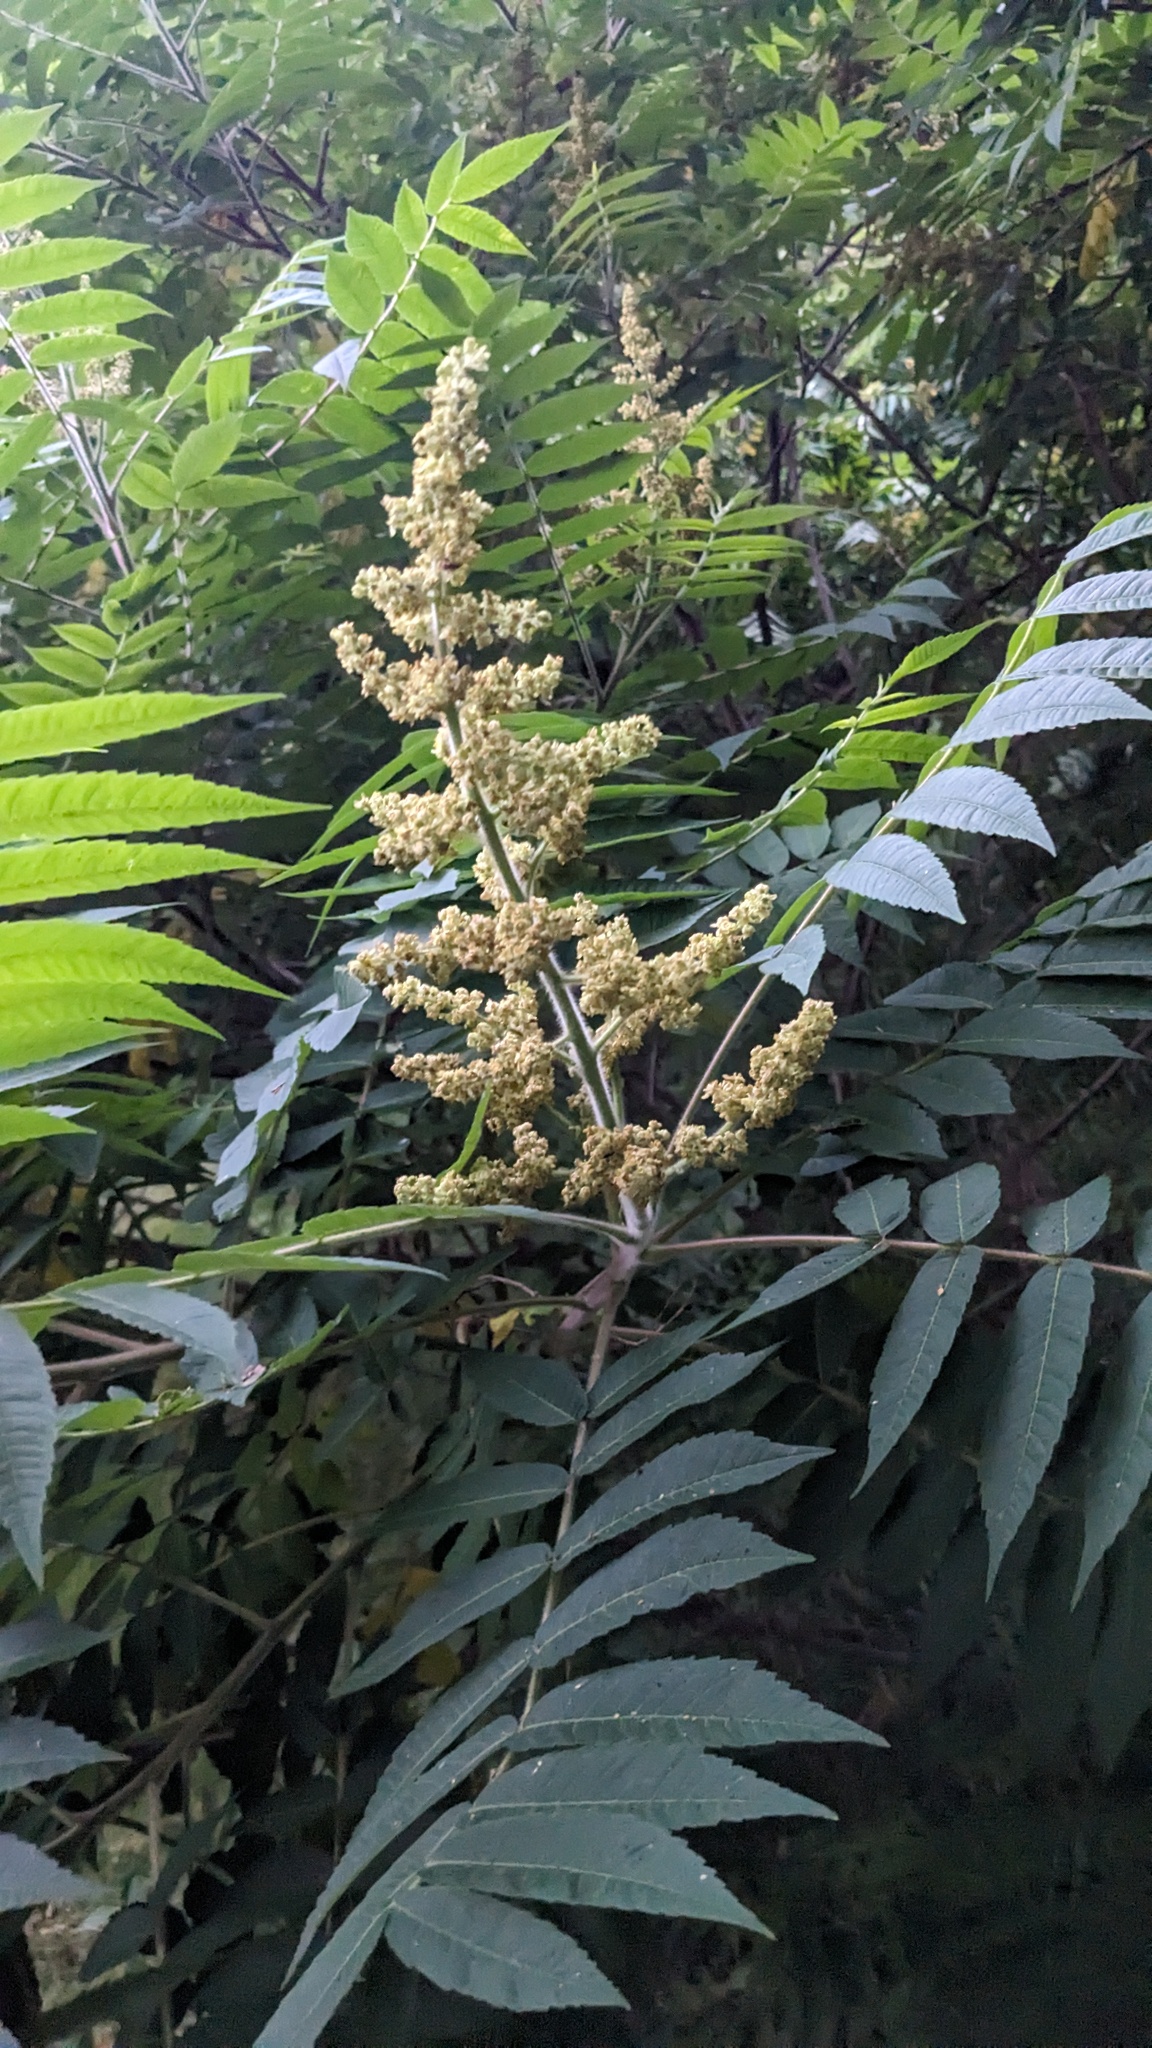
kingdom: Plantae
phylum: Tracheophyta
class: Magnoliopsida
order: Sapindales
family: Anacardiaceae
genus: Rhus
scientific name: Rhus typhina
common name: Staghorn sumac
